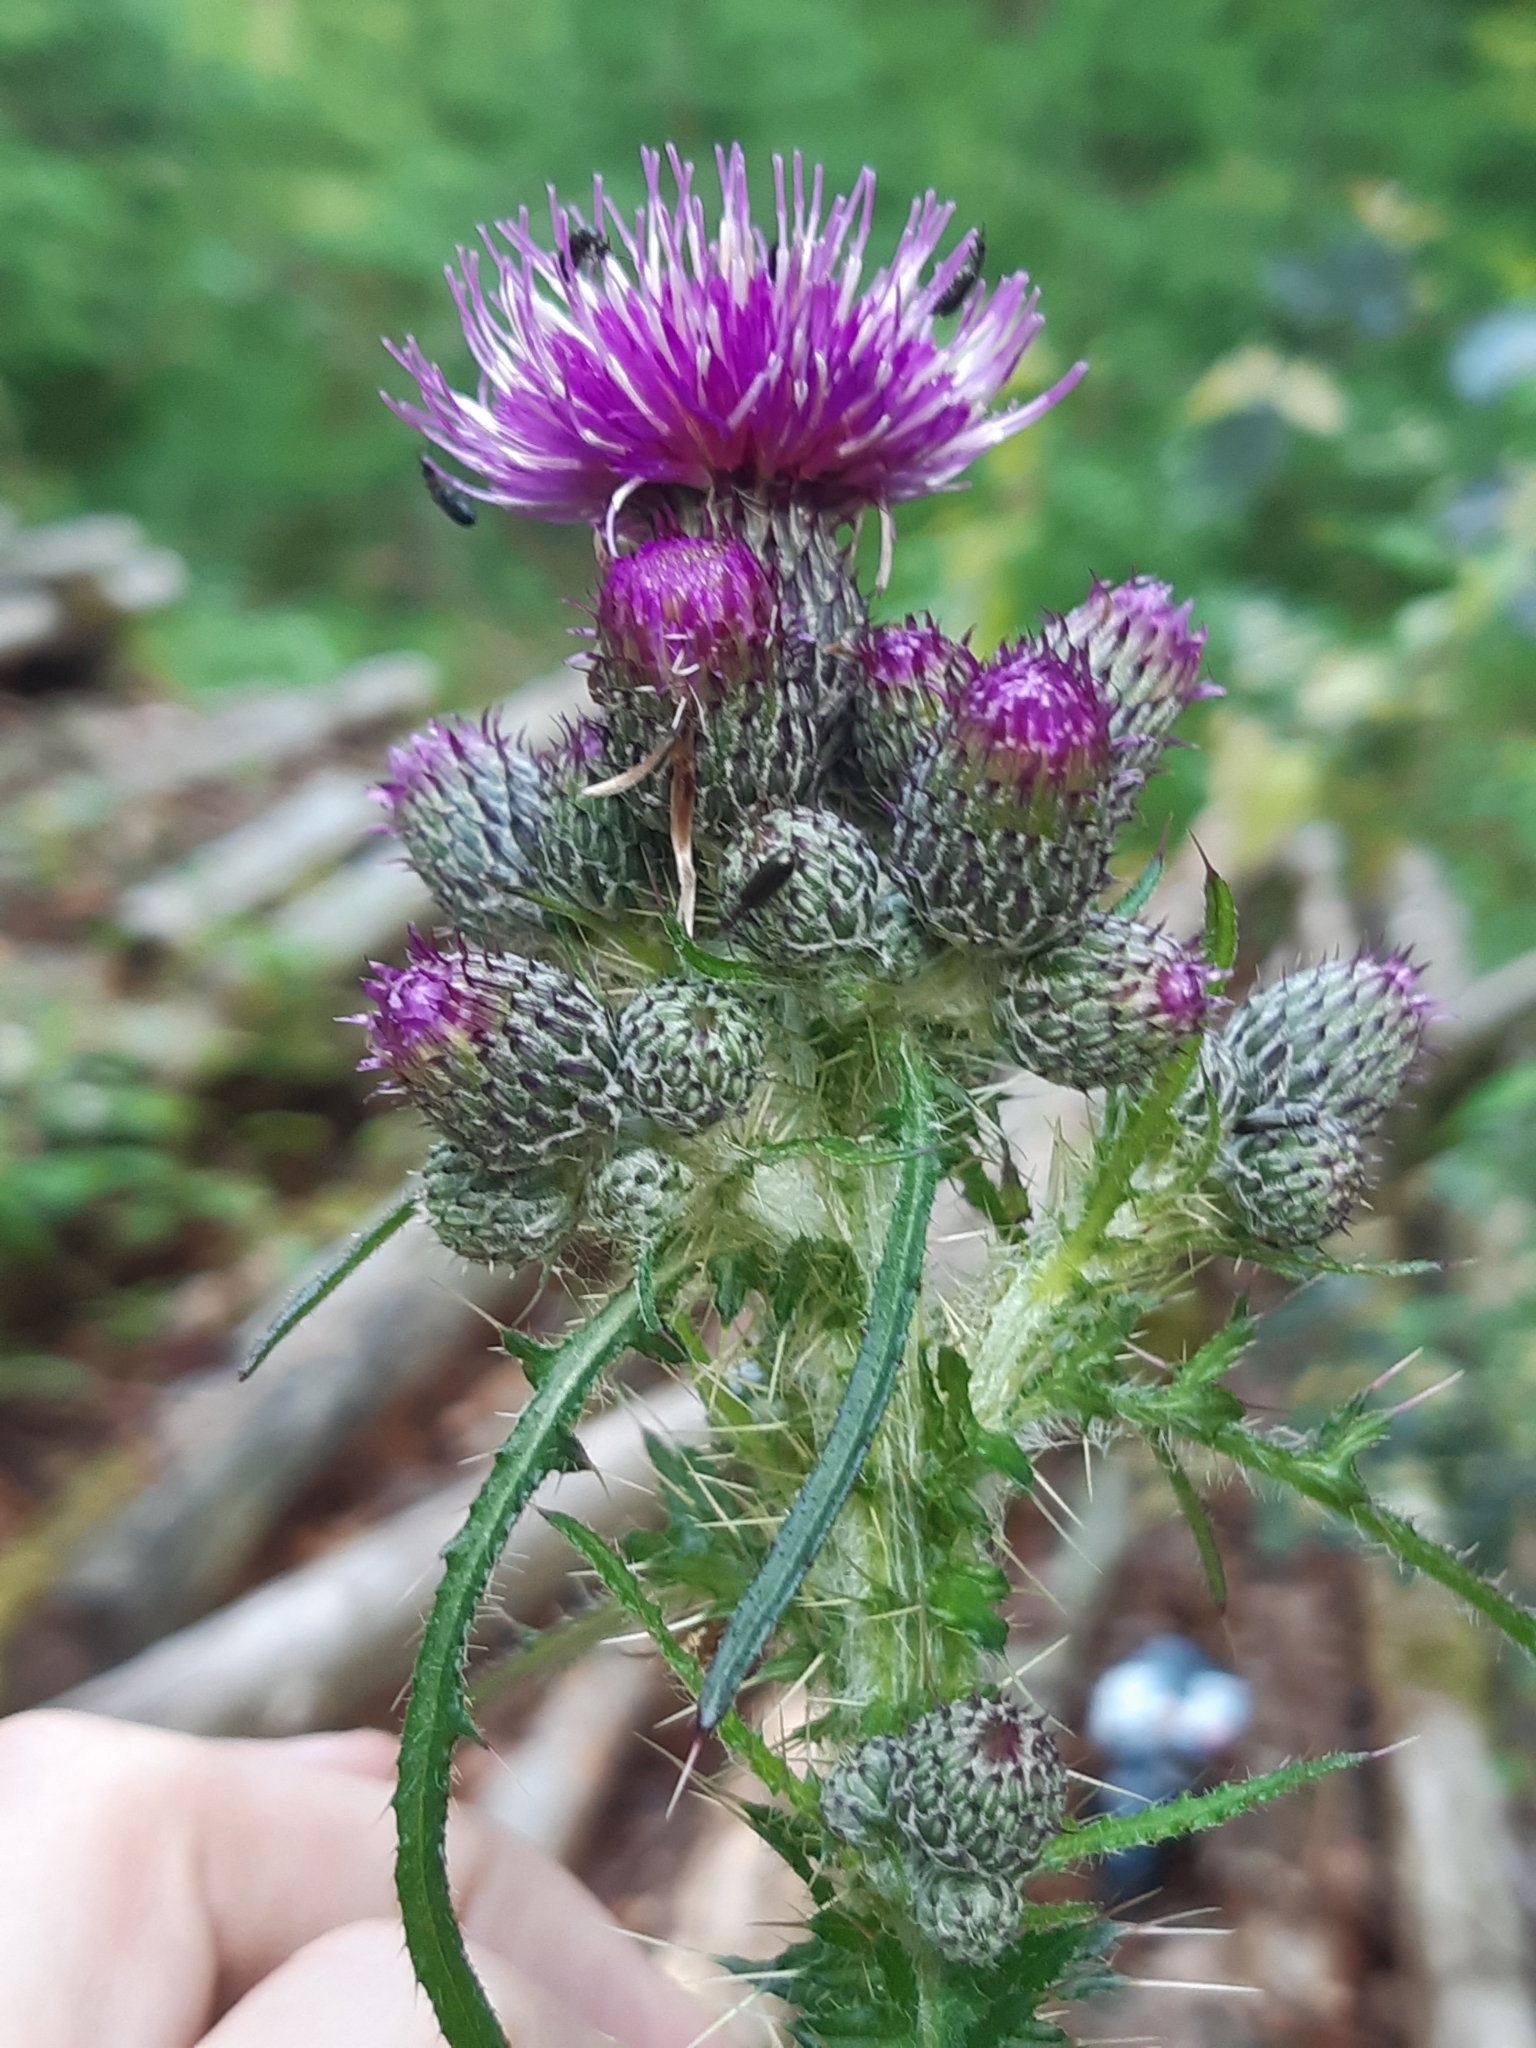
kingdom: Plantae
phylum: Tracheophyta
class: Magnoliopsida
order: Asterales
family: Asteraceae
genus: Cirsium
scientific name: Cirsium palustre
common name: Marsh thistle
